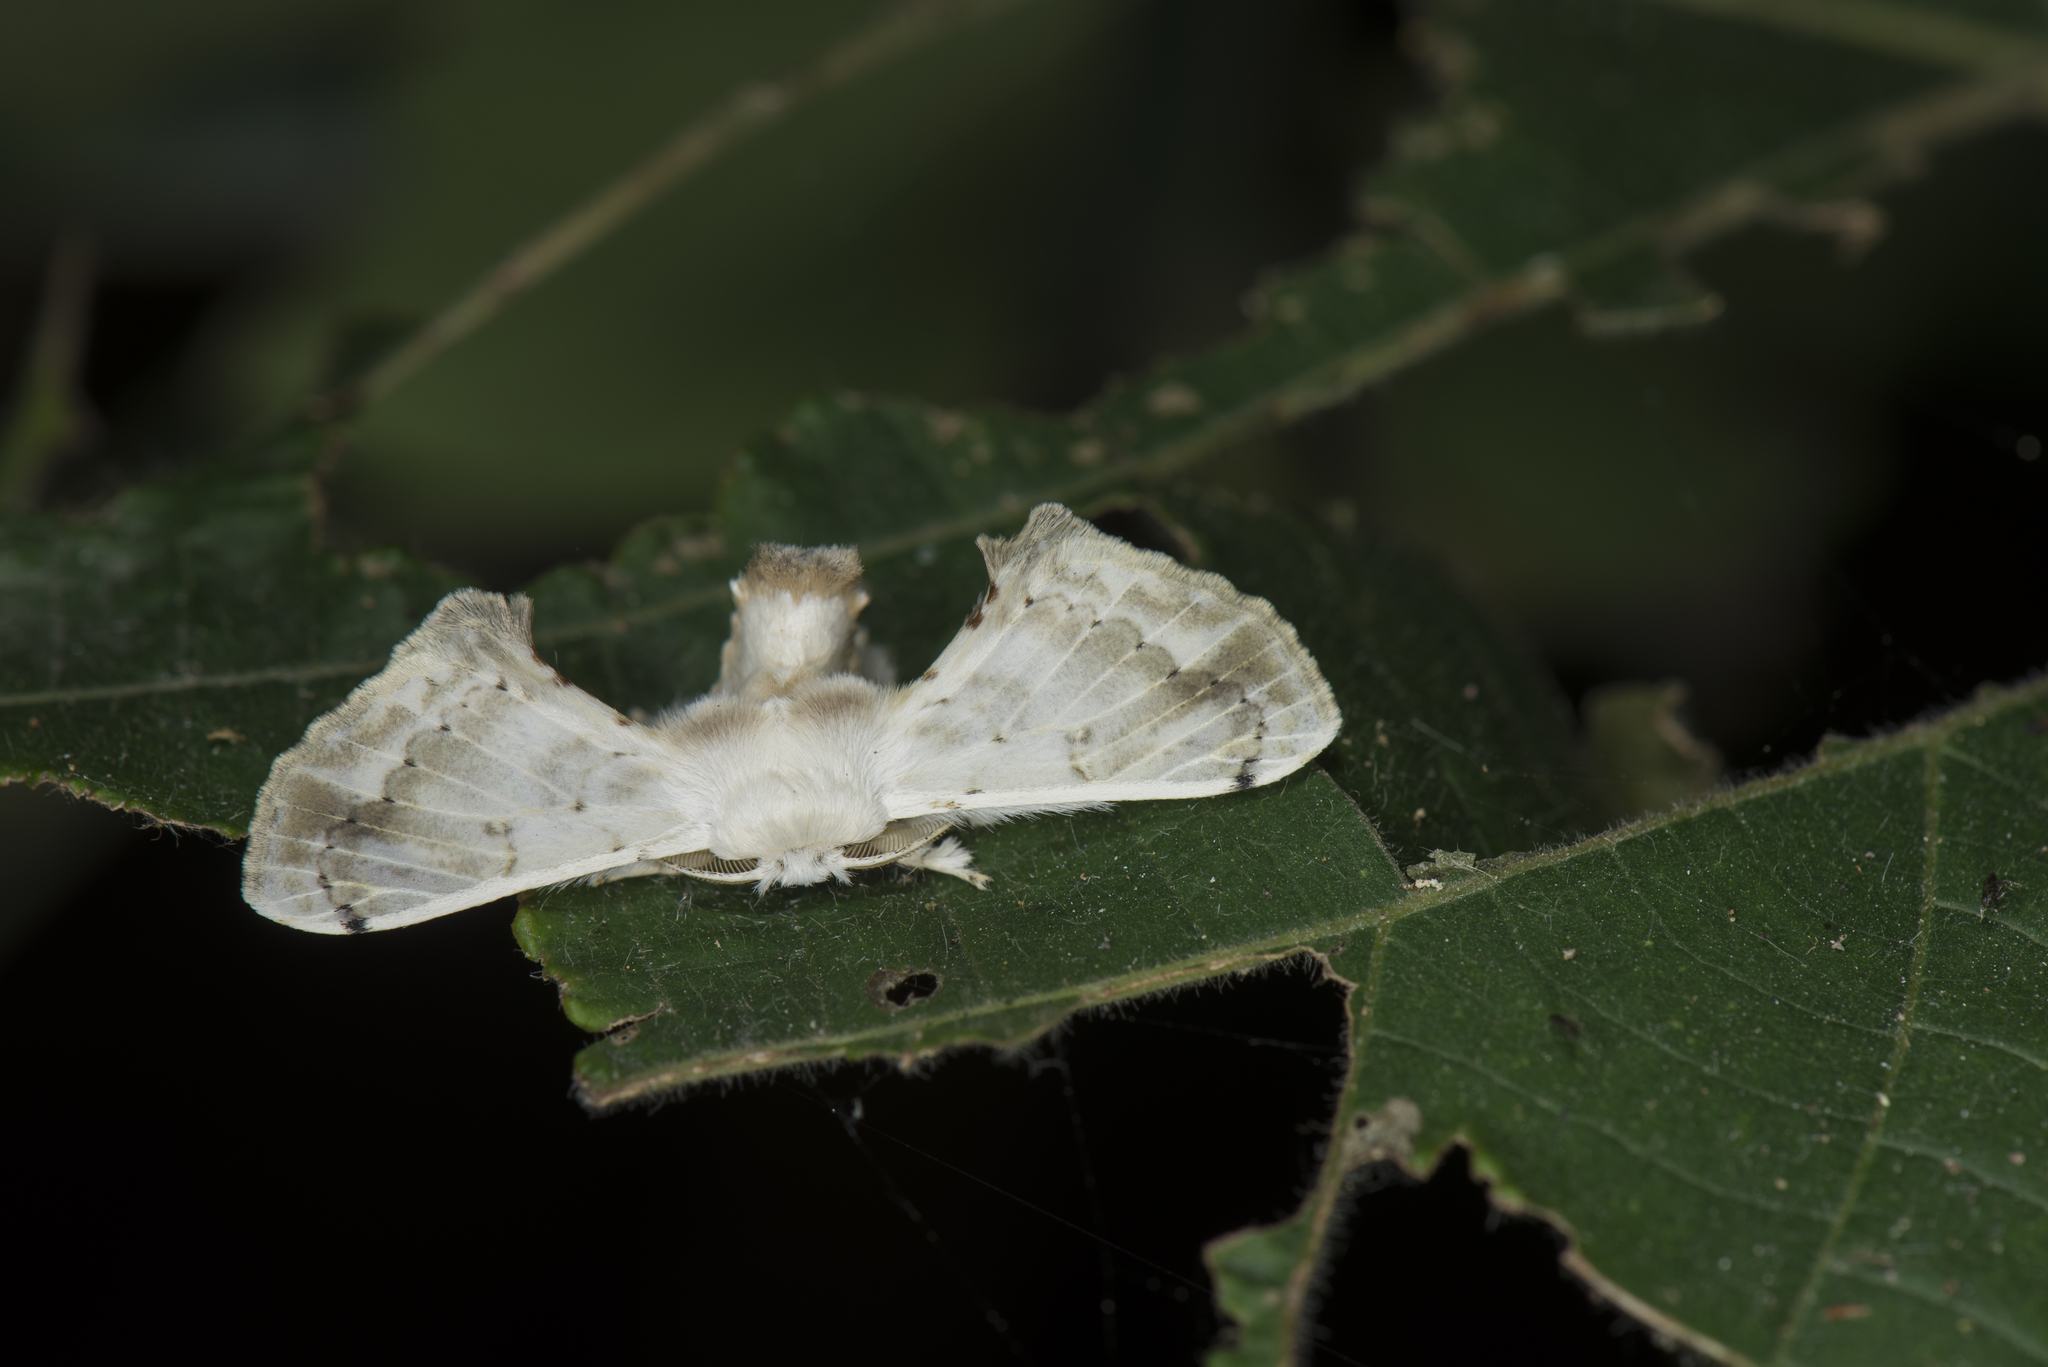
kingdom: Animalia
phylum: Arthropoda
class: Insecta
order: Lepidoptera
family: Bombycidae
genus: Ernolatia
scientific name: Ernolatia moorei
